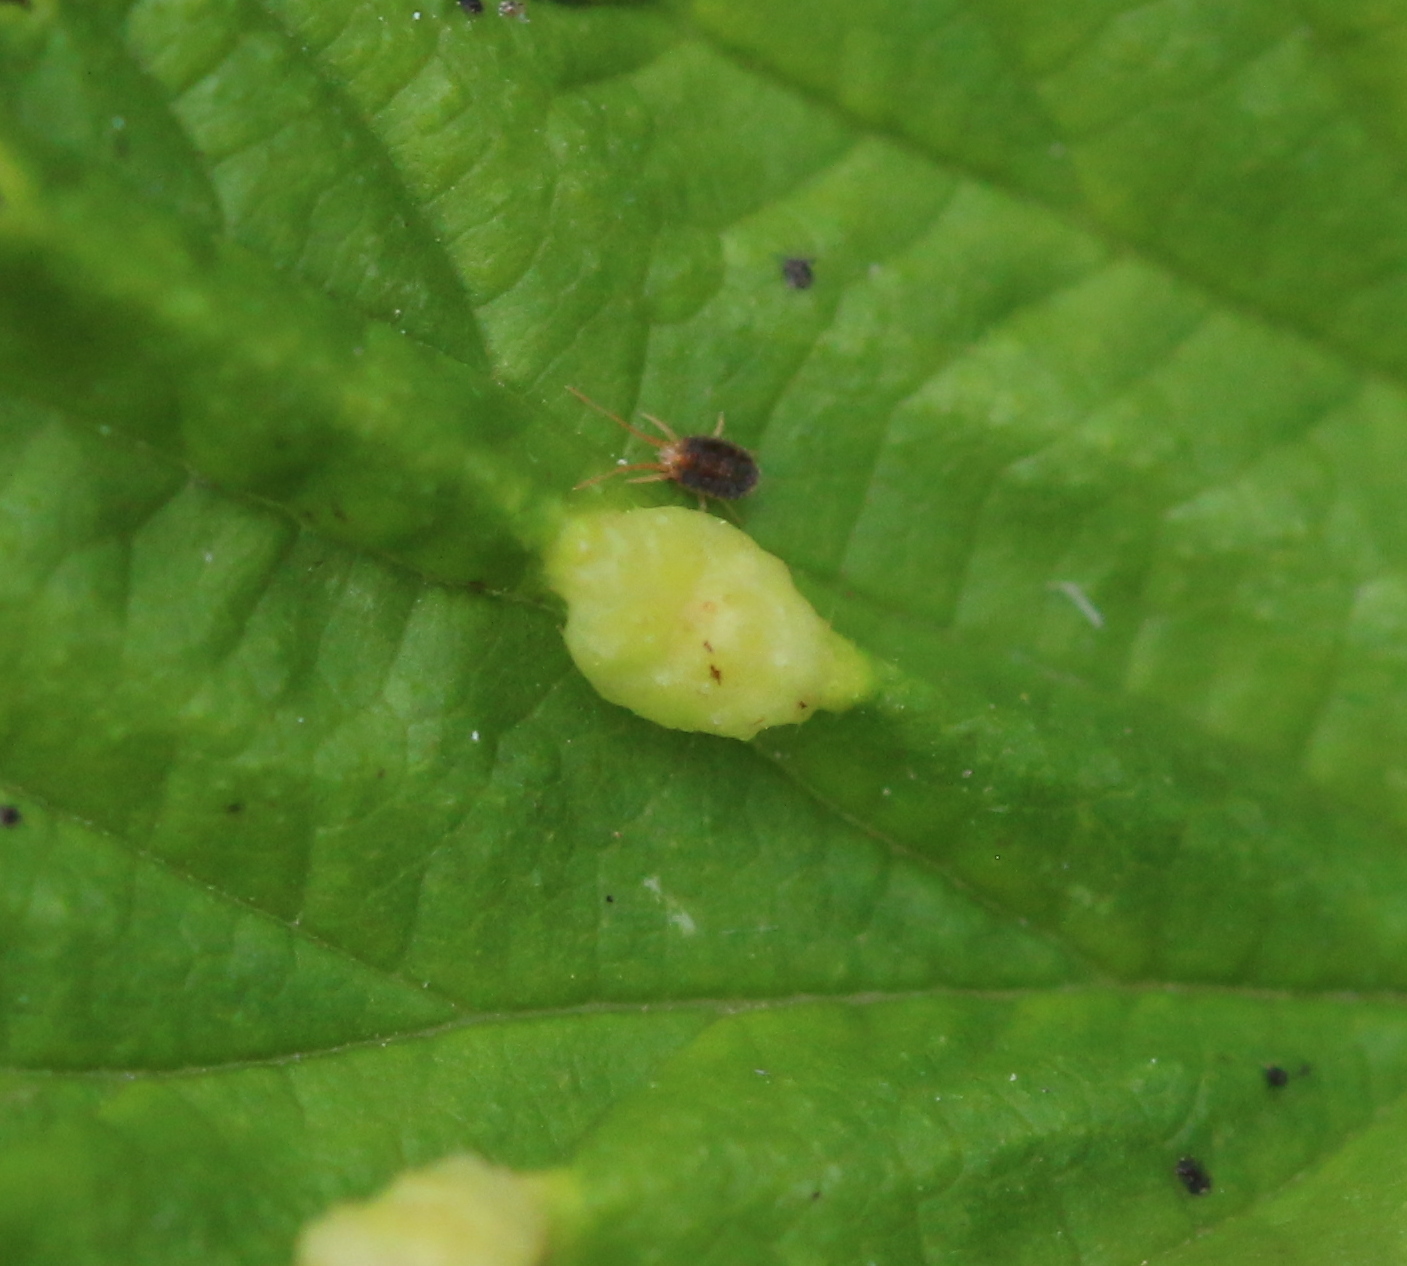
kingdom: Animalia
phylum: Arthropoda
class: Insecta
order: Diptera
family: Cecidomyiidae
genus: Dasineura
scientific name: Dasineura ulmaria
